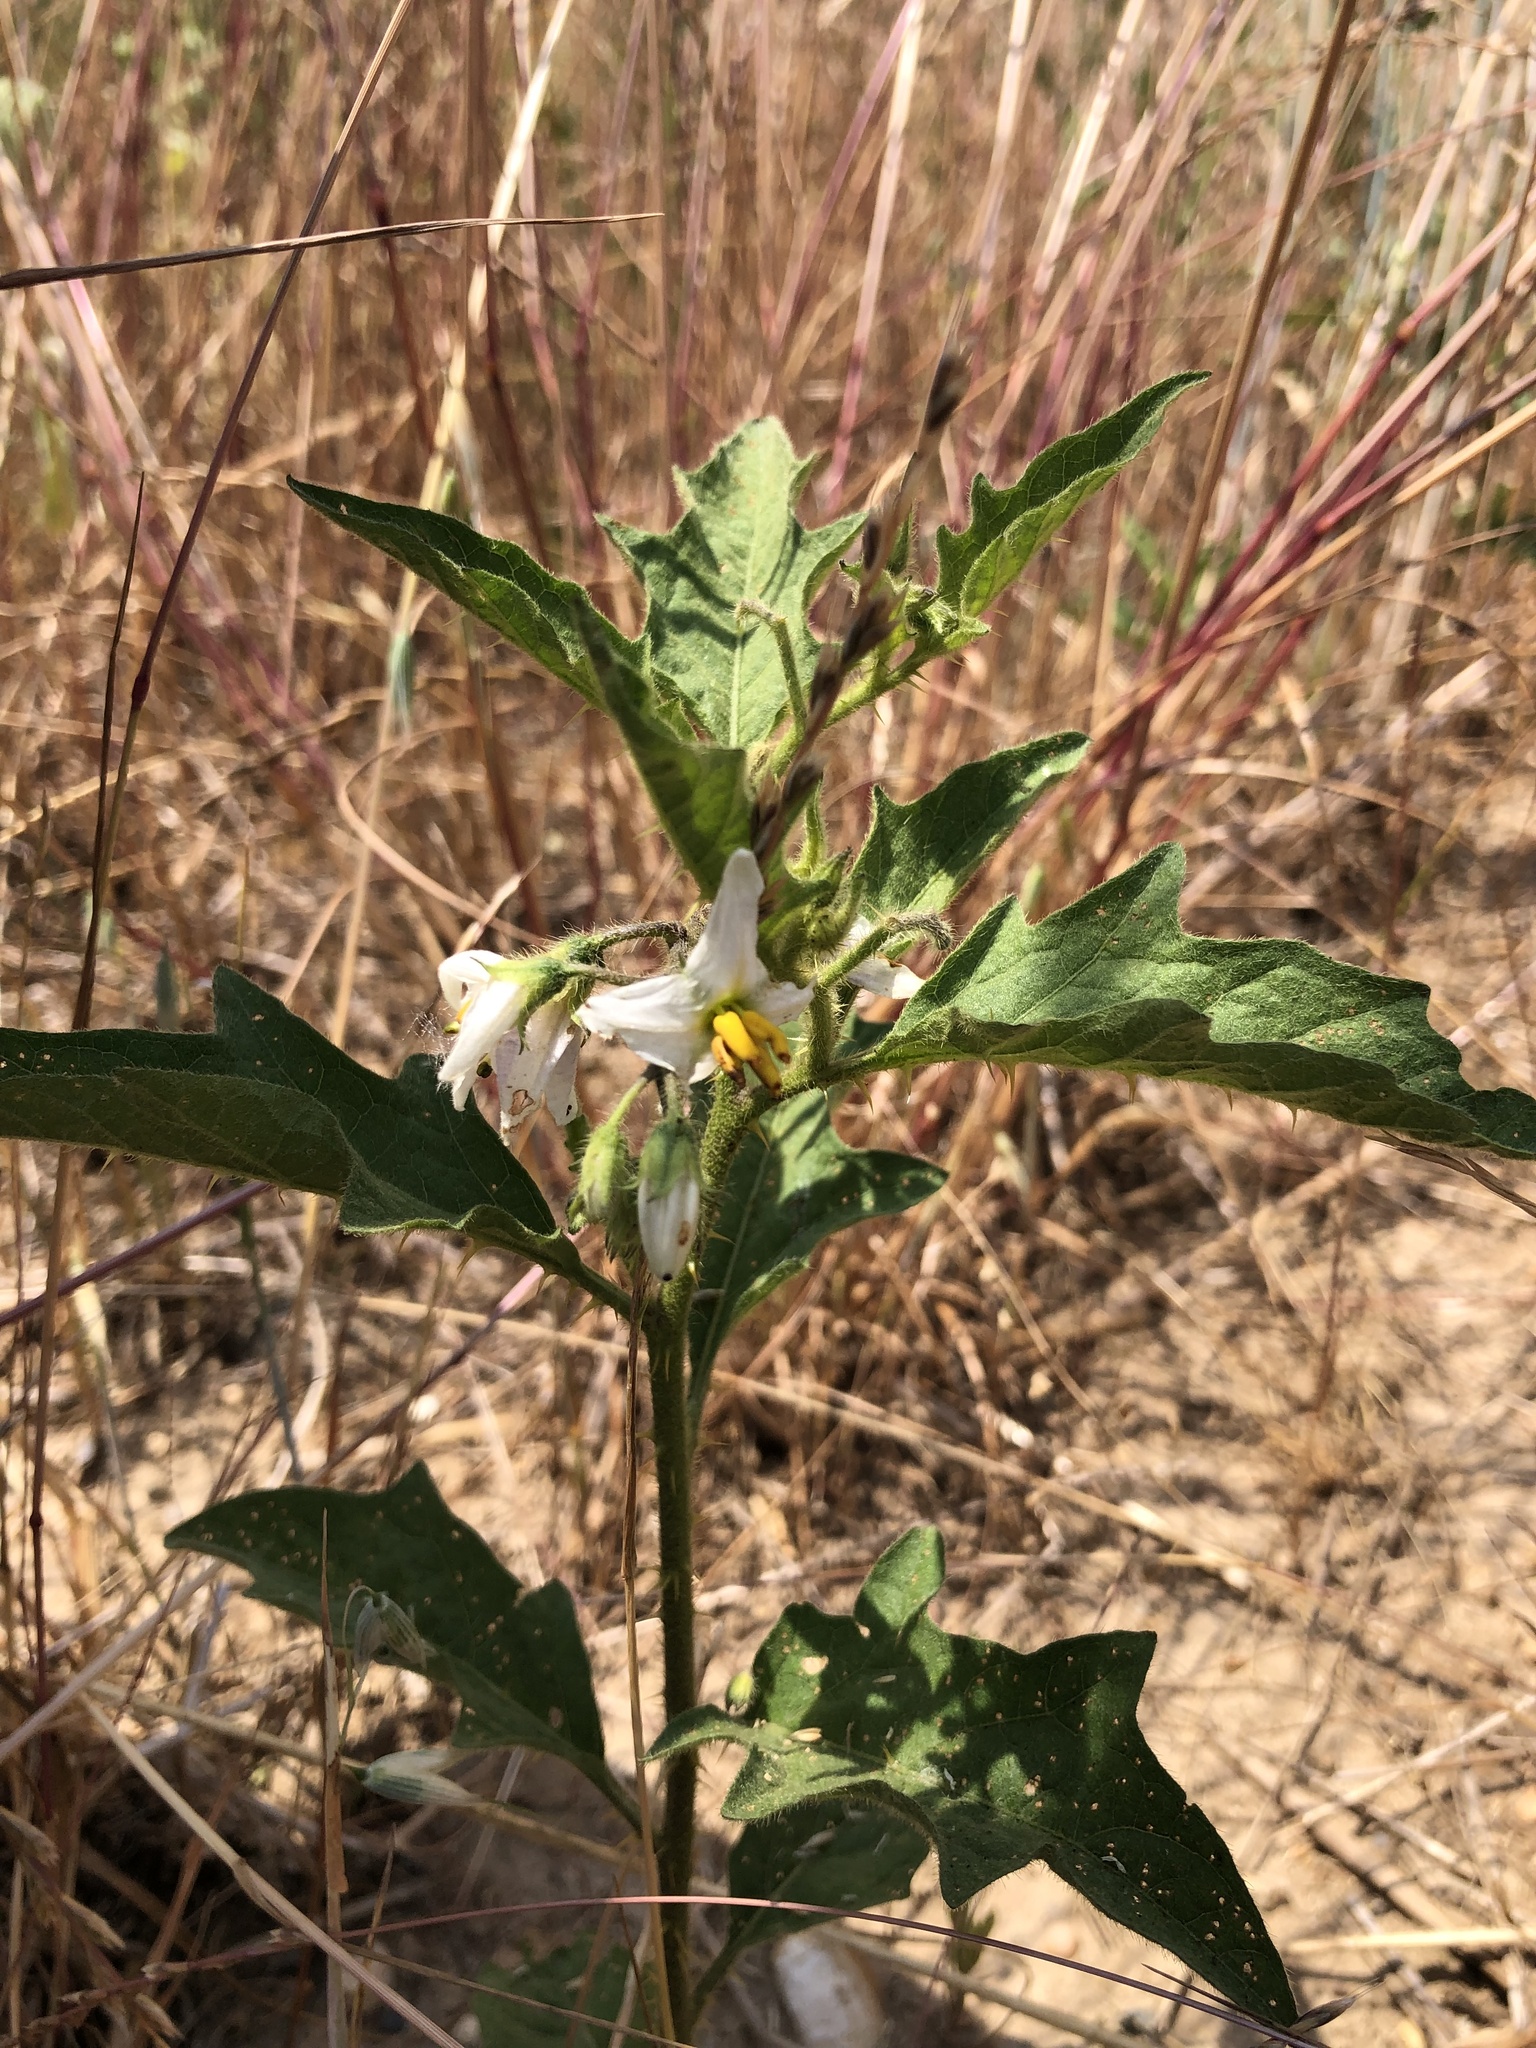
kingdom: Plantae
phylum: Tracheophyta
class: Magnoliopsida
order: Solanales
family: Solanaceae
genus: Solanum
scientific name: Solanum carolinense
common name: Horse-nettle
